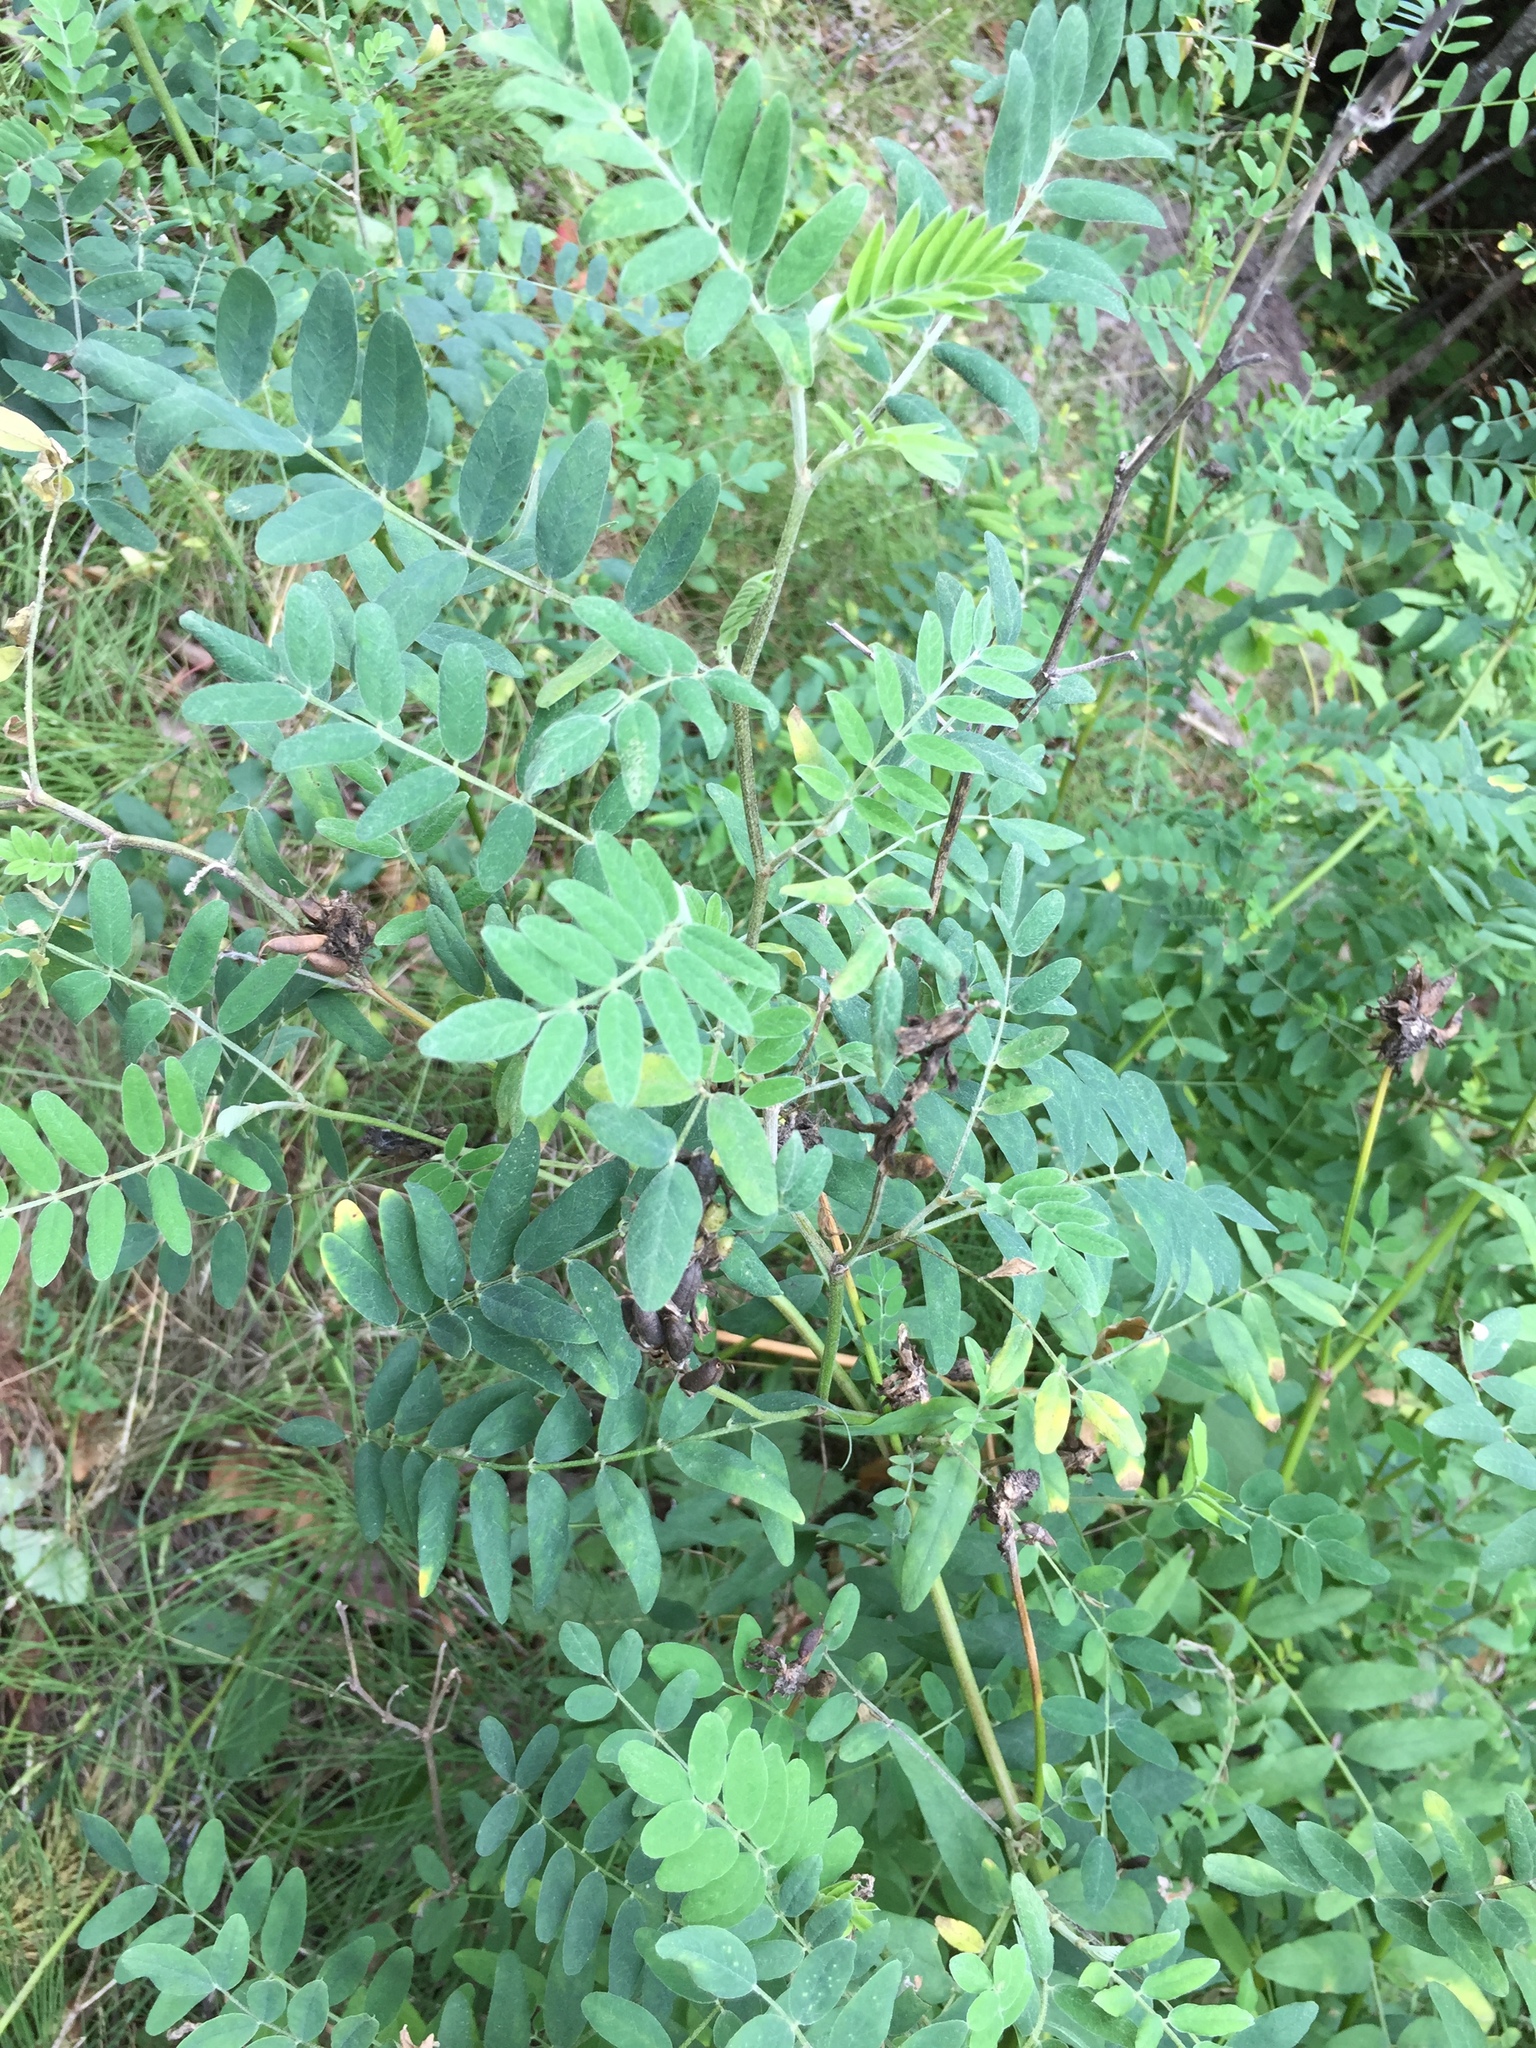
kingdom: Plantae
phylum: Tracheophyta
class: Magnoliopsida
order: Fabales
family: Fabaceae
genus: Astragalus
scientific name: Astragalus canadensis
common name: Canada milk-vetch
